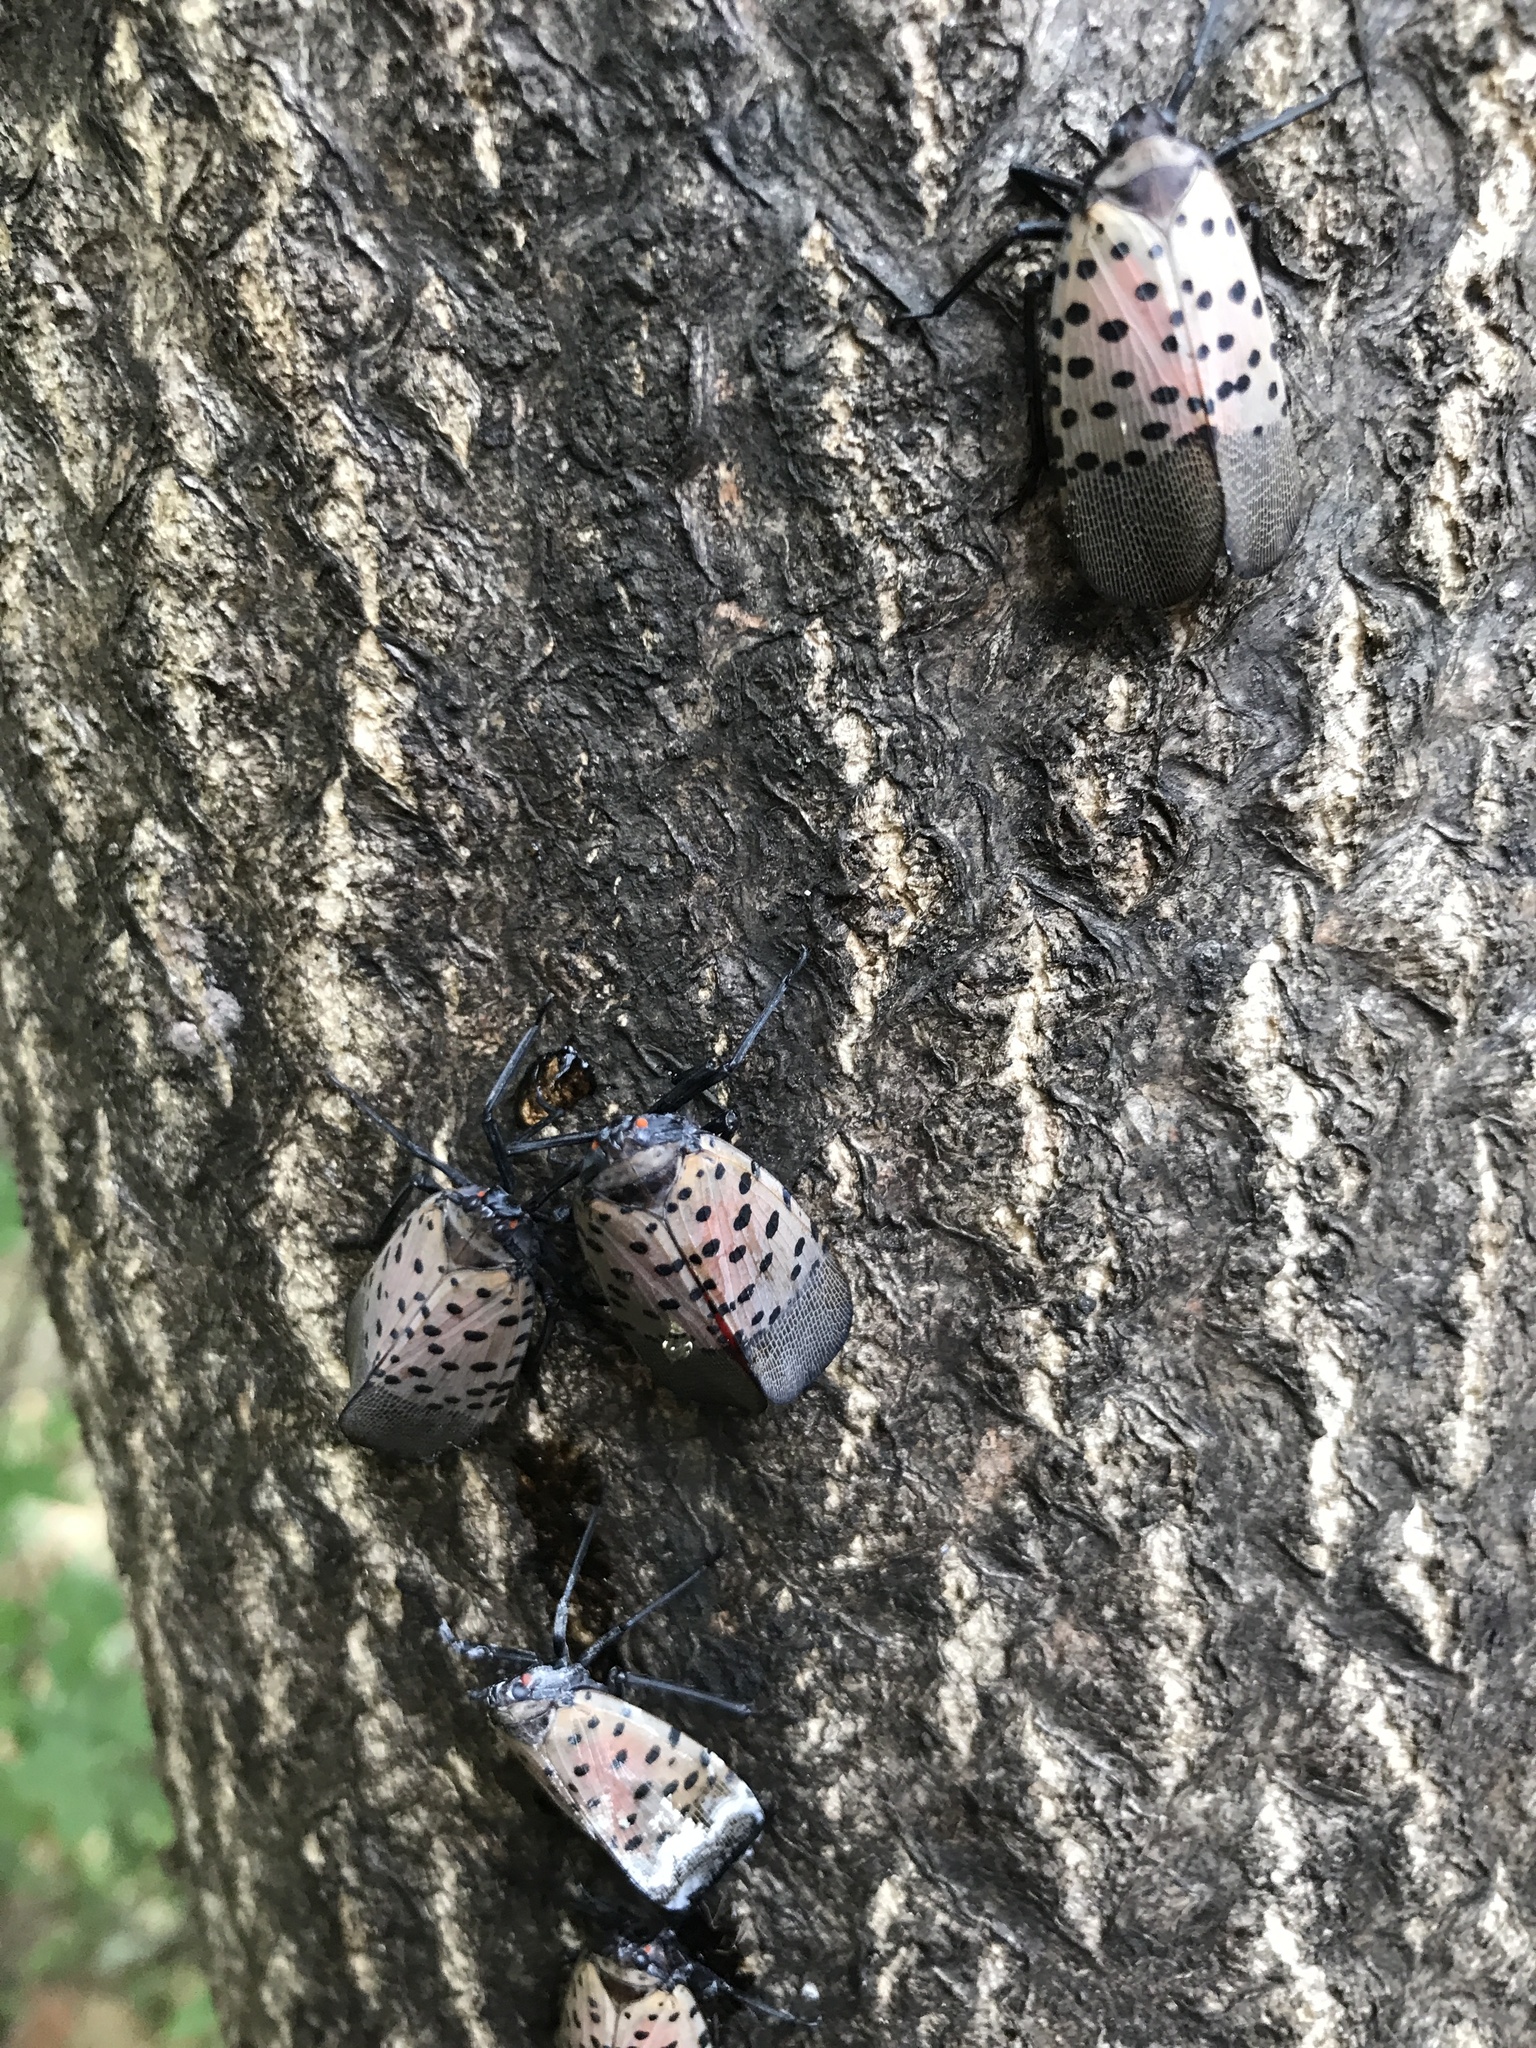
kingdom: Animalia
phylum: Arthropoda
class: Insecta
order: Hemiptera
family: Fulgoridae
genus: Lycorma
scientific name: Lycorma delicatula
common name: Spotted lanternfly
